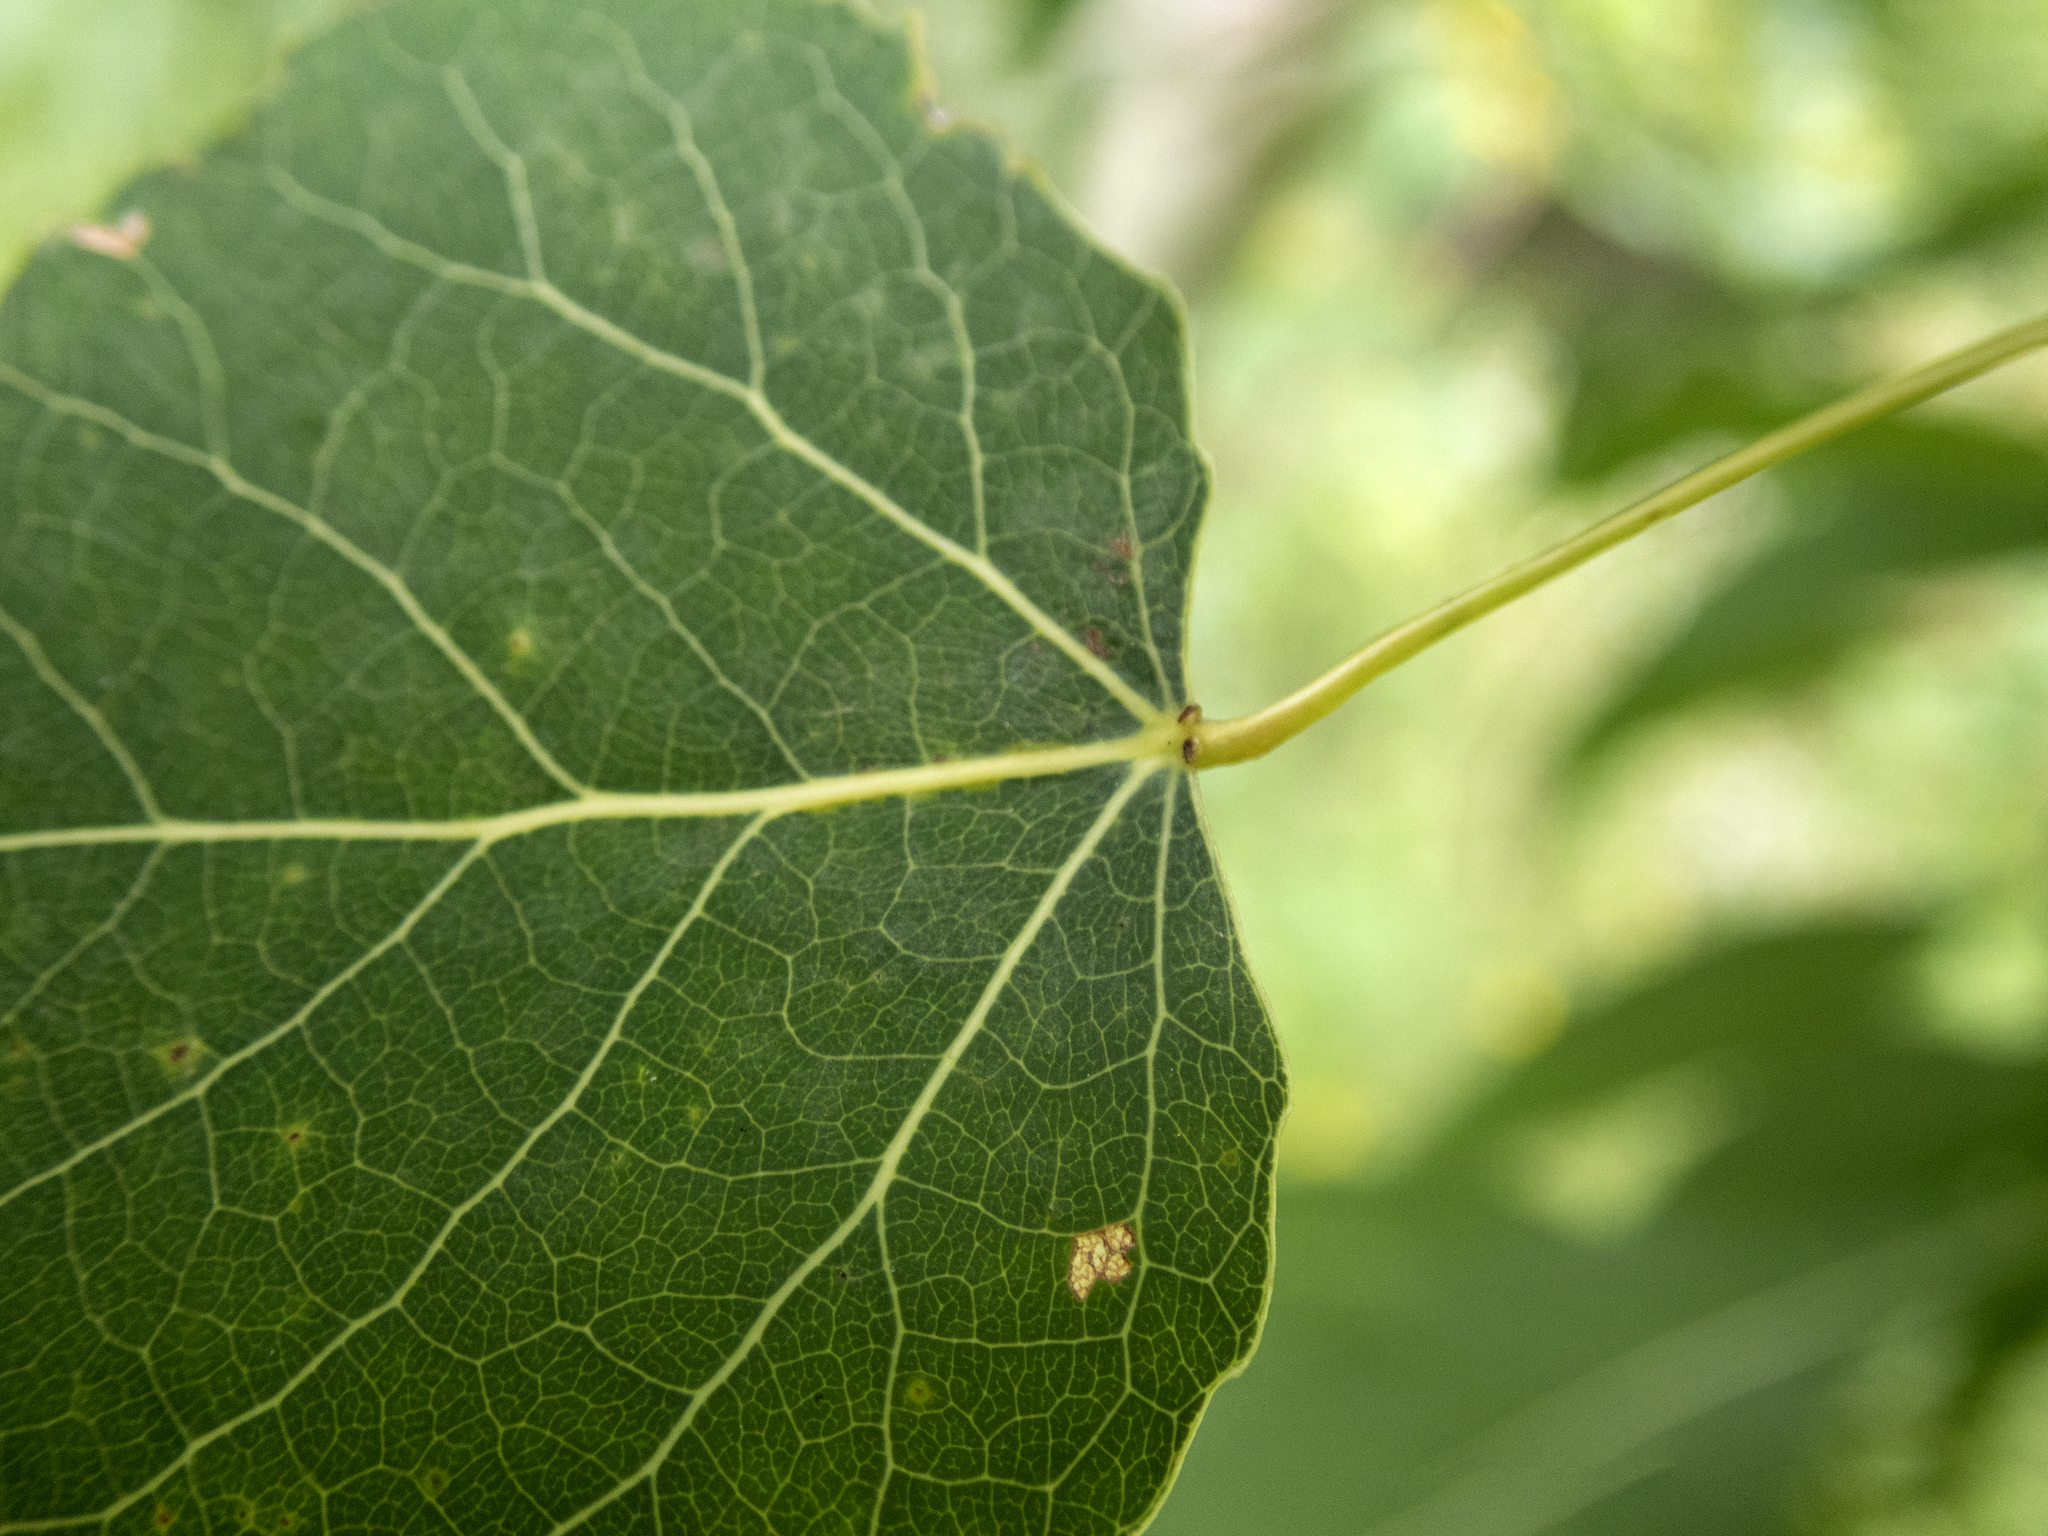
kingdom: Plantae
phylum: Tracheophyta
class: Magnoliopsida
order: Malpighiales
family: Salicaceae
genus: Populus
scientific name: Populus tremuloides
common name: Quaking aspen
